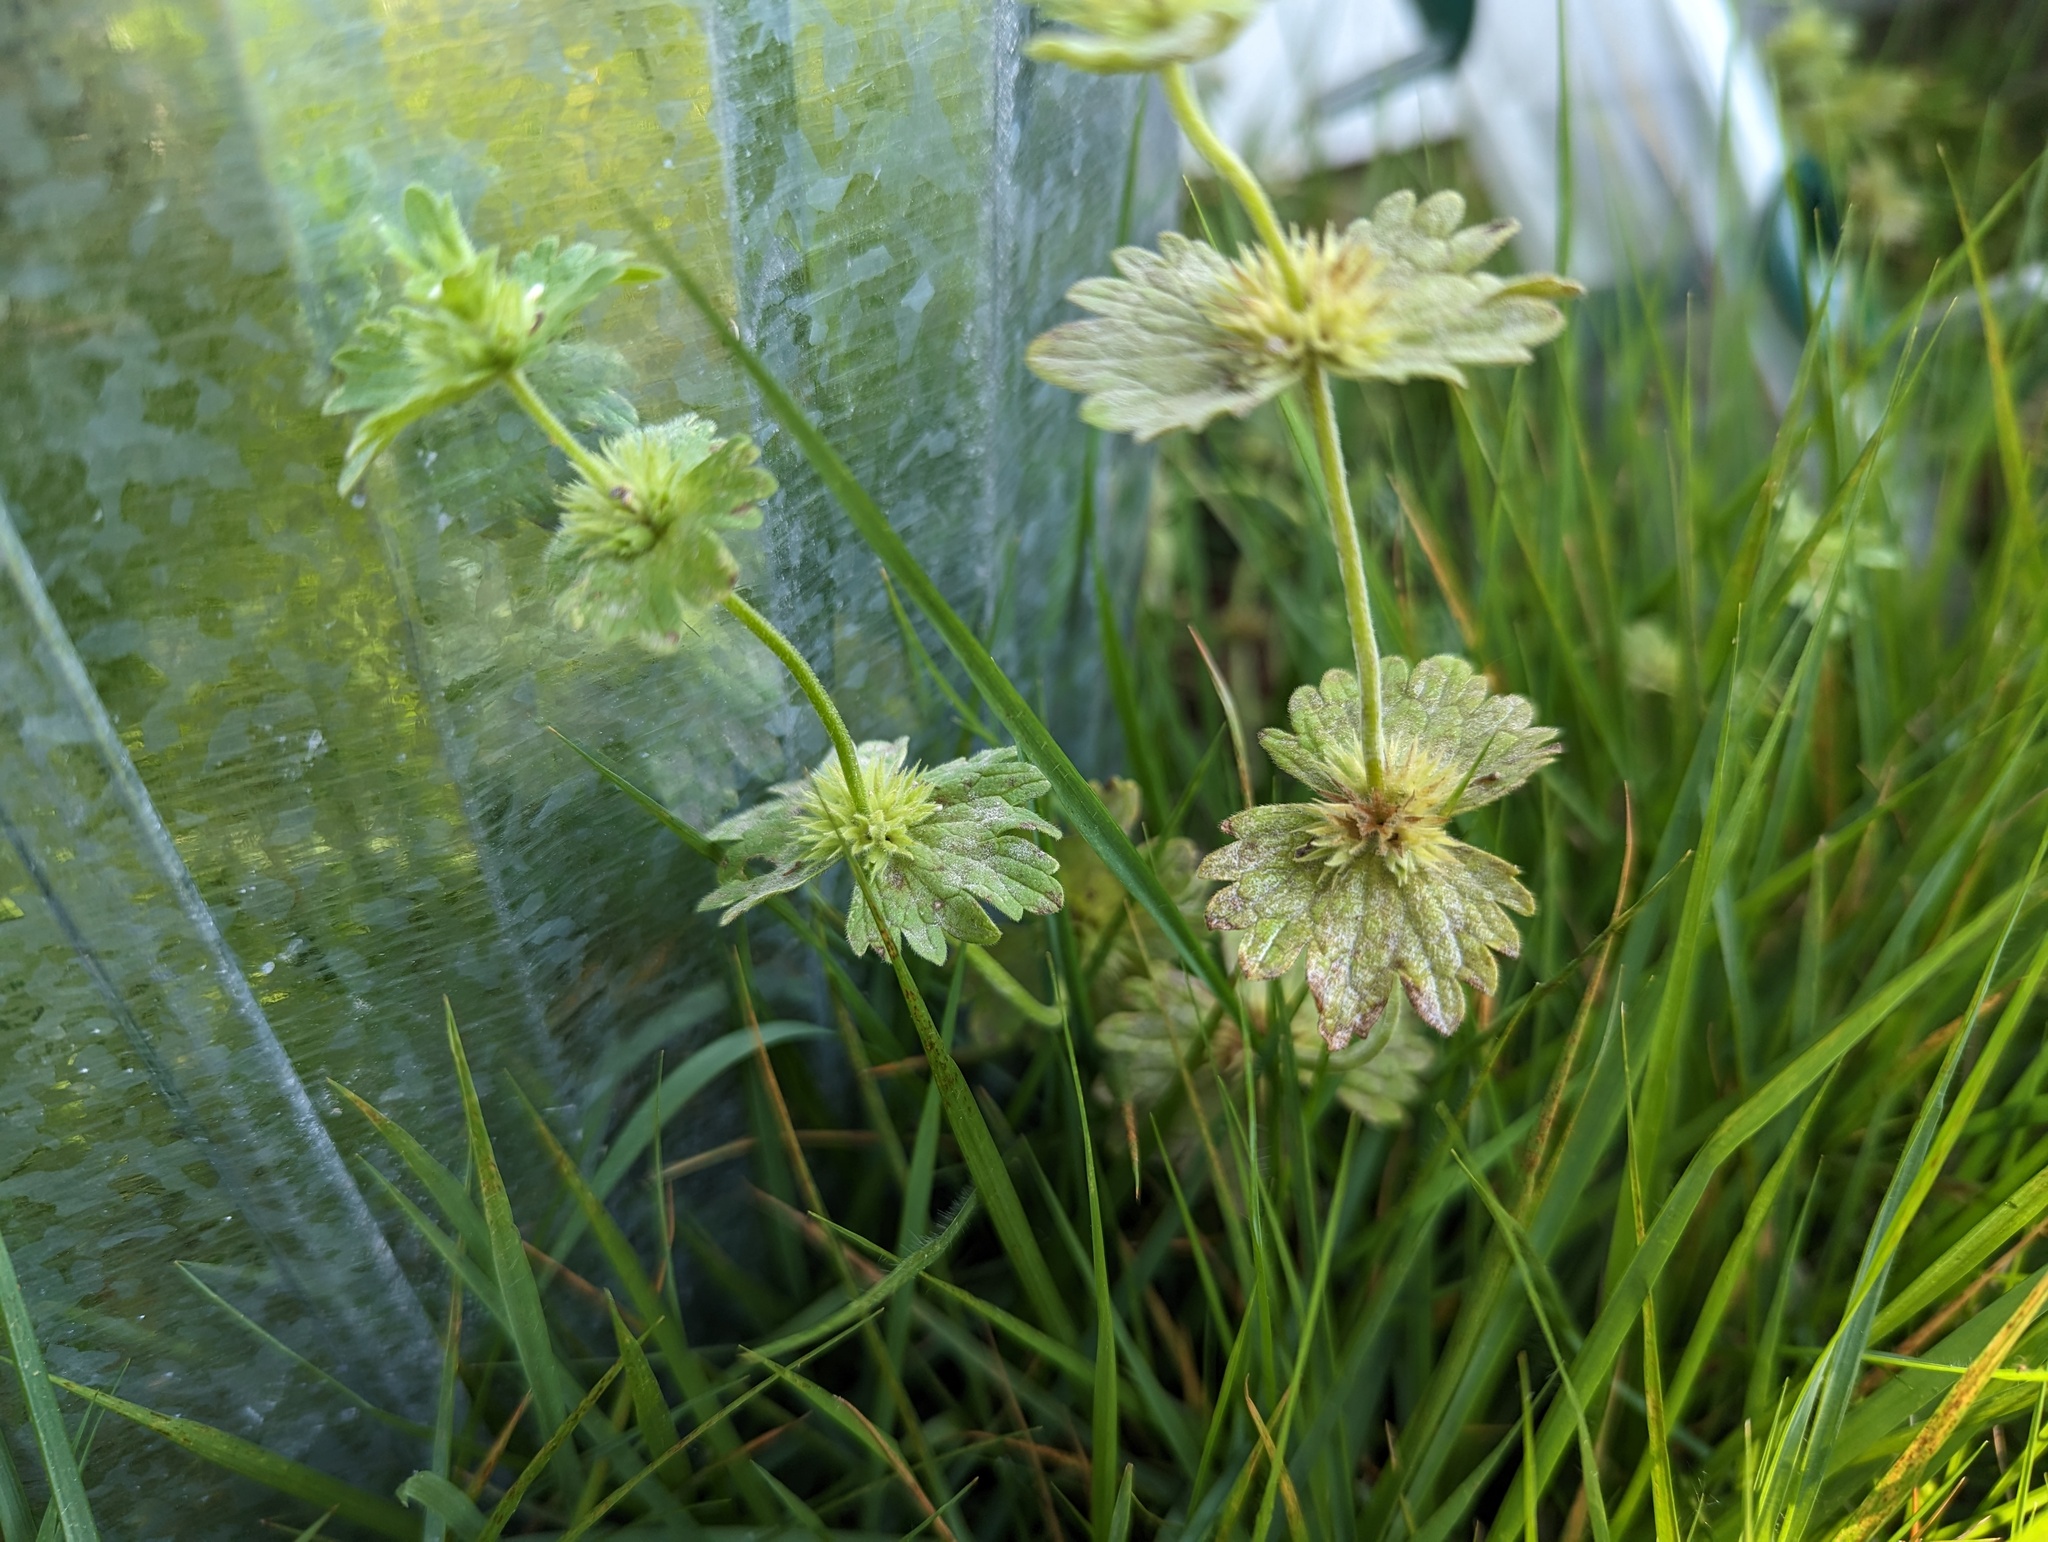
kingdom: Plantae
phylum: Tracheophyta
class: Magnoliopsida
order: Lamiales
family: Lamiaceae
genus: Lamium
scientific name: Lamium amplexicaule
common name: Henbit dead-nettle
